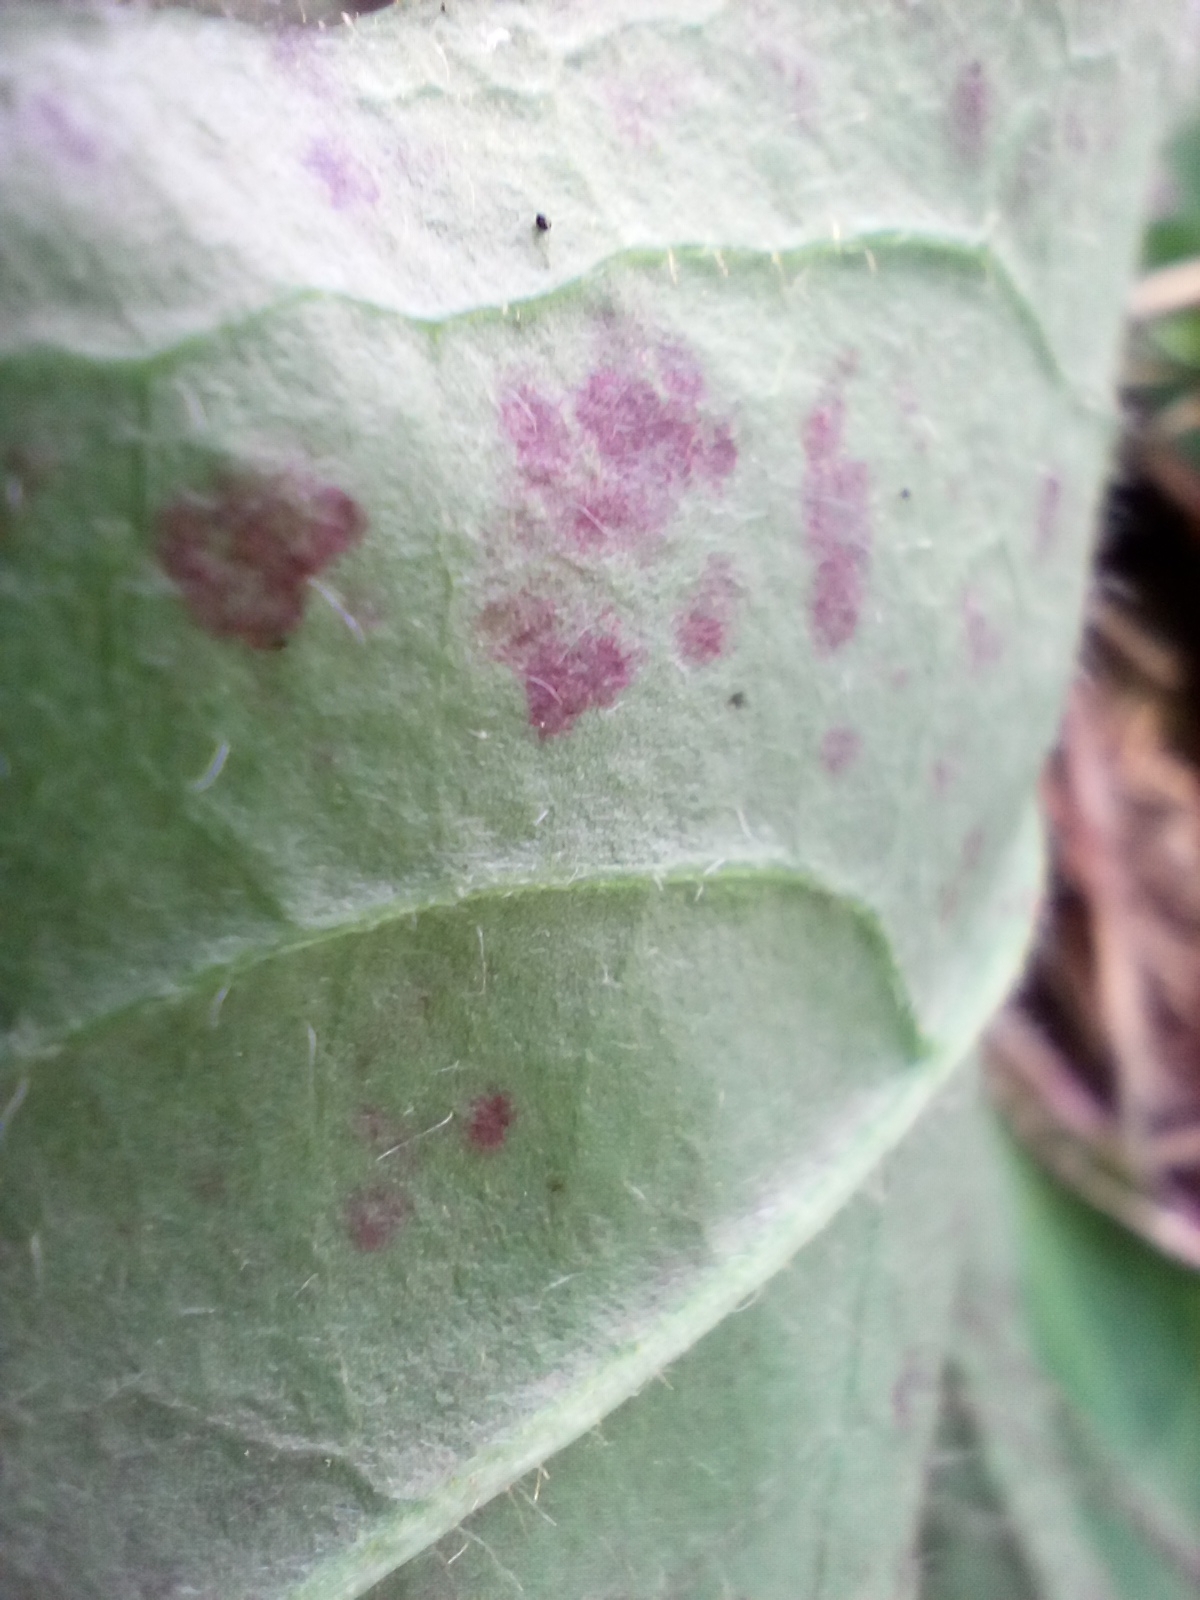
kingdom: Plantae
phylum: Tracheophyta
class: Magnoliopsida
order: Asterales
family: Asteraceae
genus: Hieracium
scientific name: Hieracium lachenalii
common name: Common hawkweed
